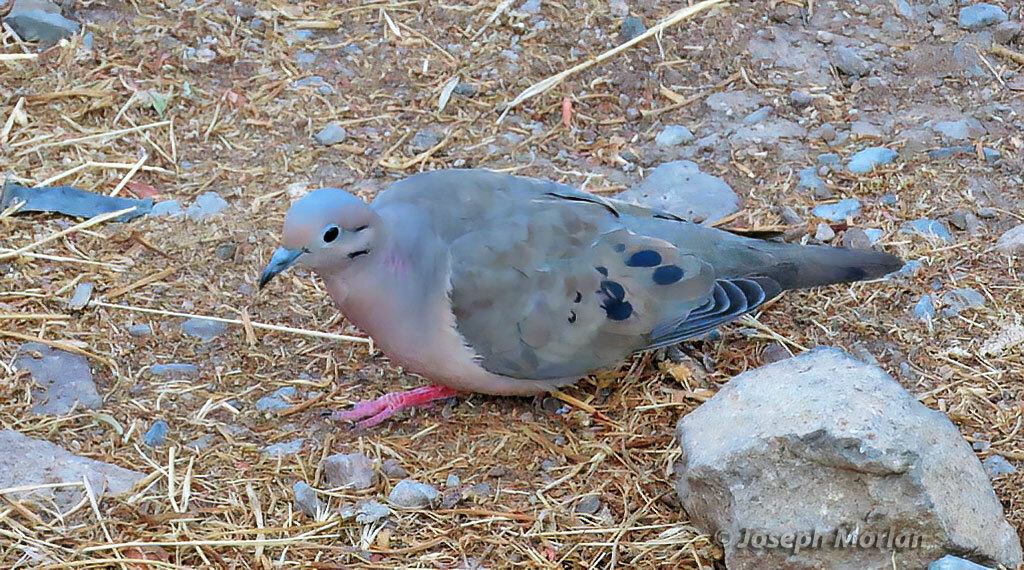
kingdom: Animalia
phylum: Chordata
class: Aves
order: Columbiformes
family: Columbidae
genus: Zenaida
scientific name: Zenaida auriculata
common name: Eared dove
